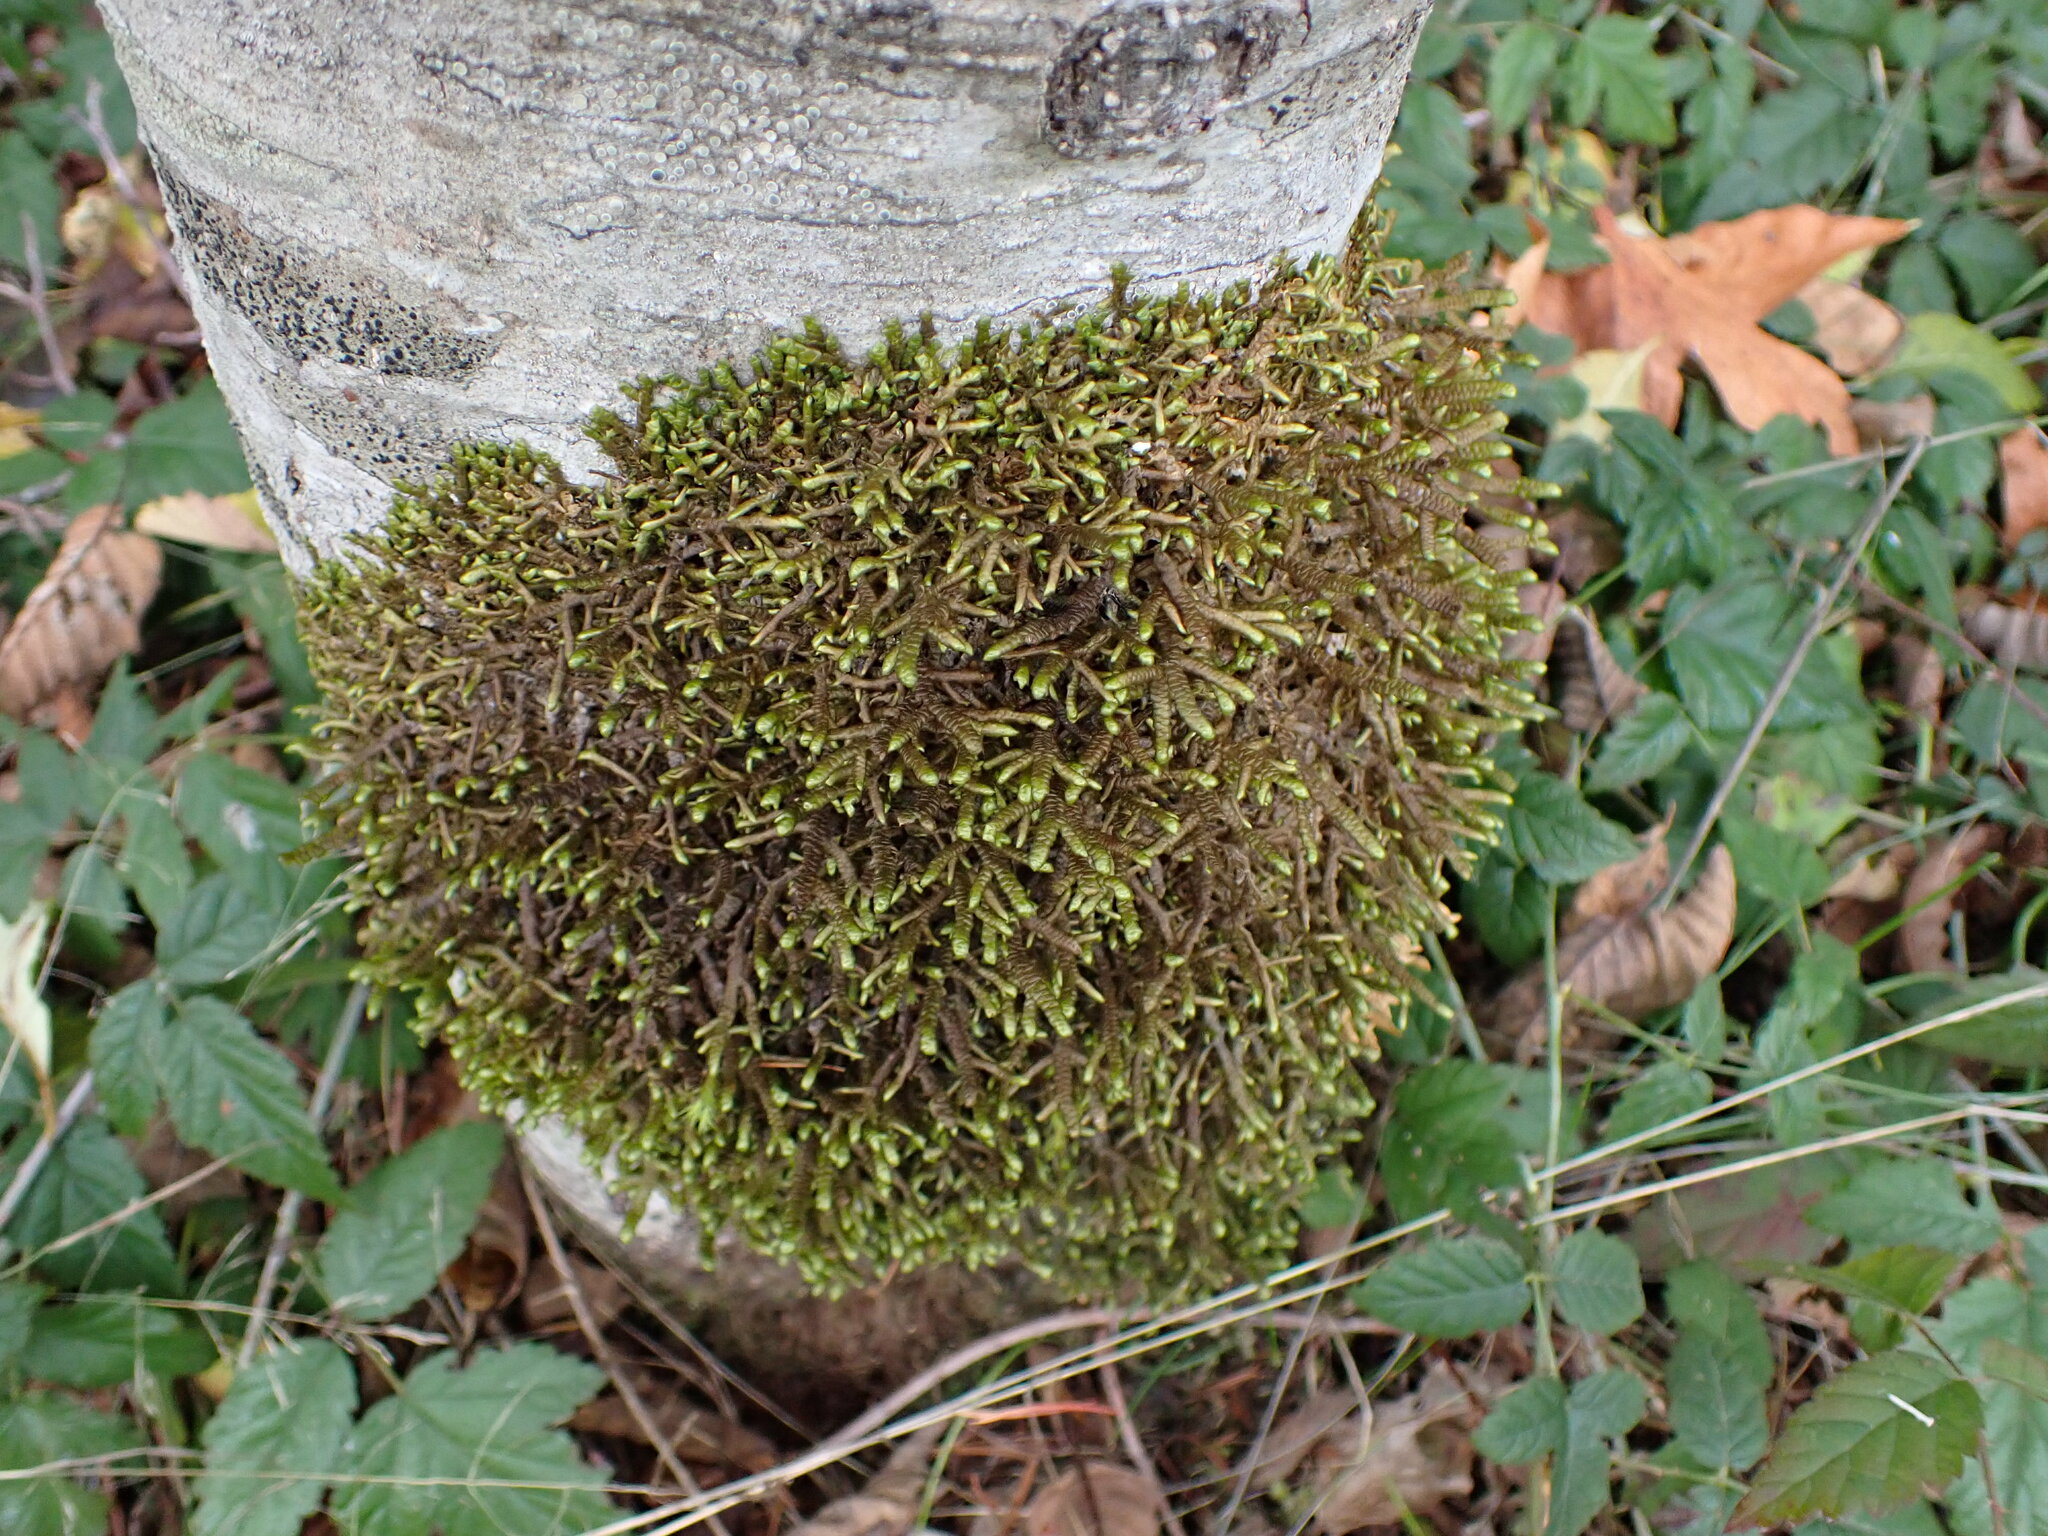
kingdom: Plantae
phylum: Marchantiophyta
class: Jungermanniopsida
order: Porellales
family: Porellaceae
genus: Porella
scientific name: Porella navicularis
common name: Tree ruffle liverwort
